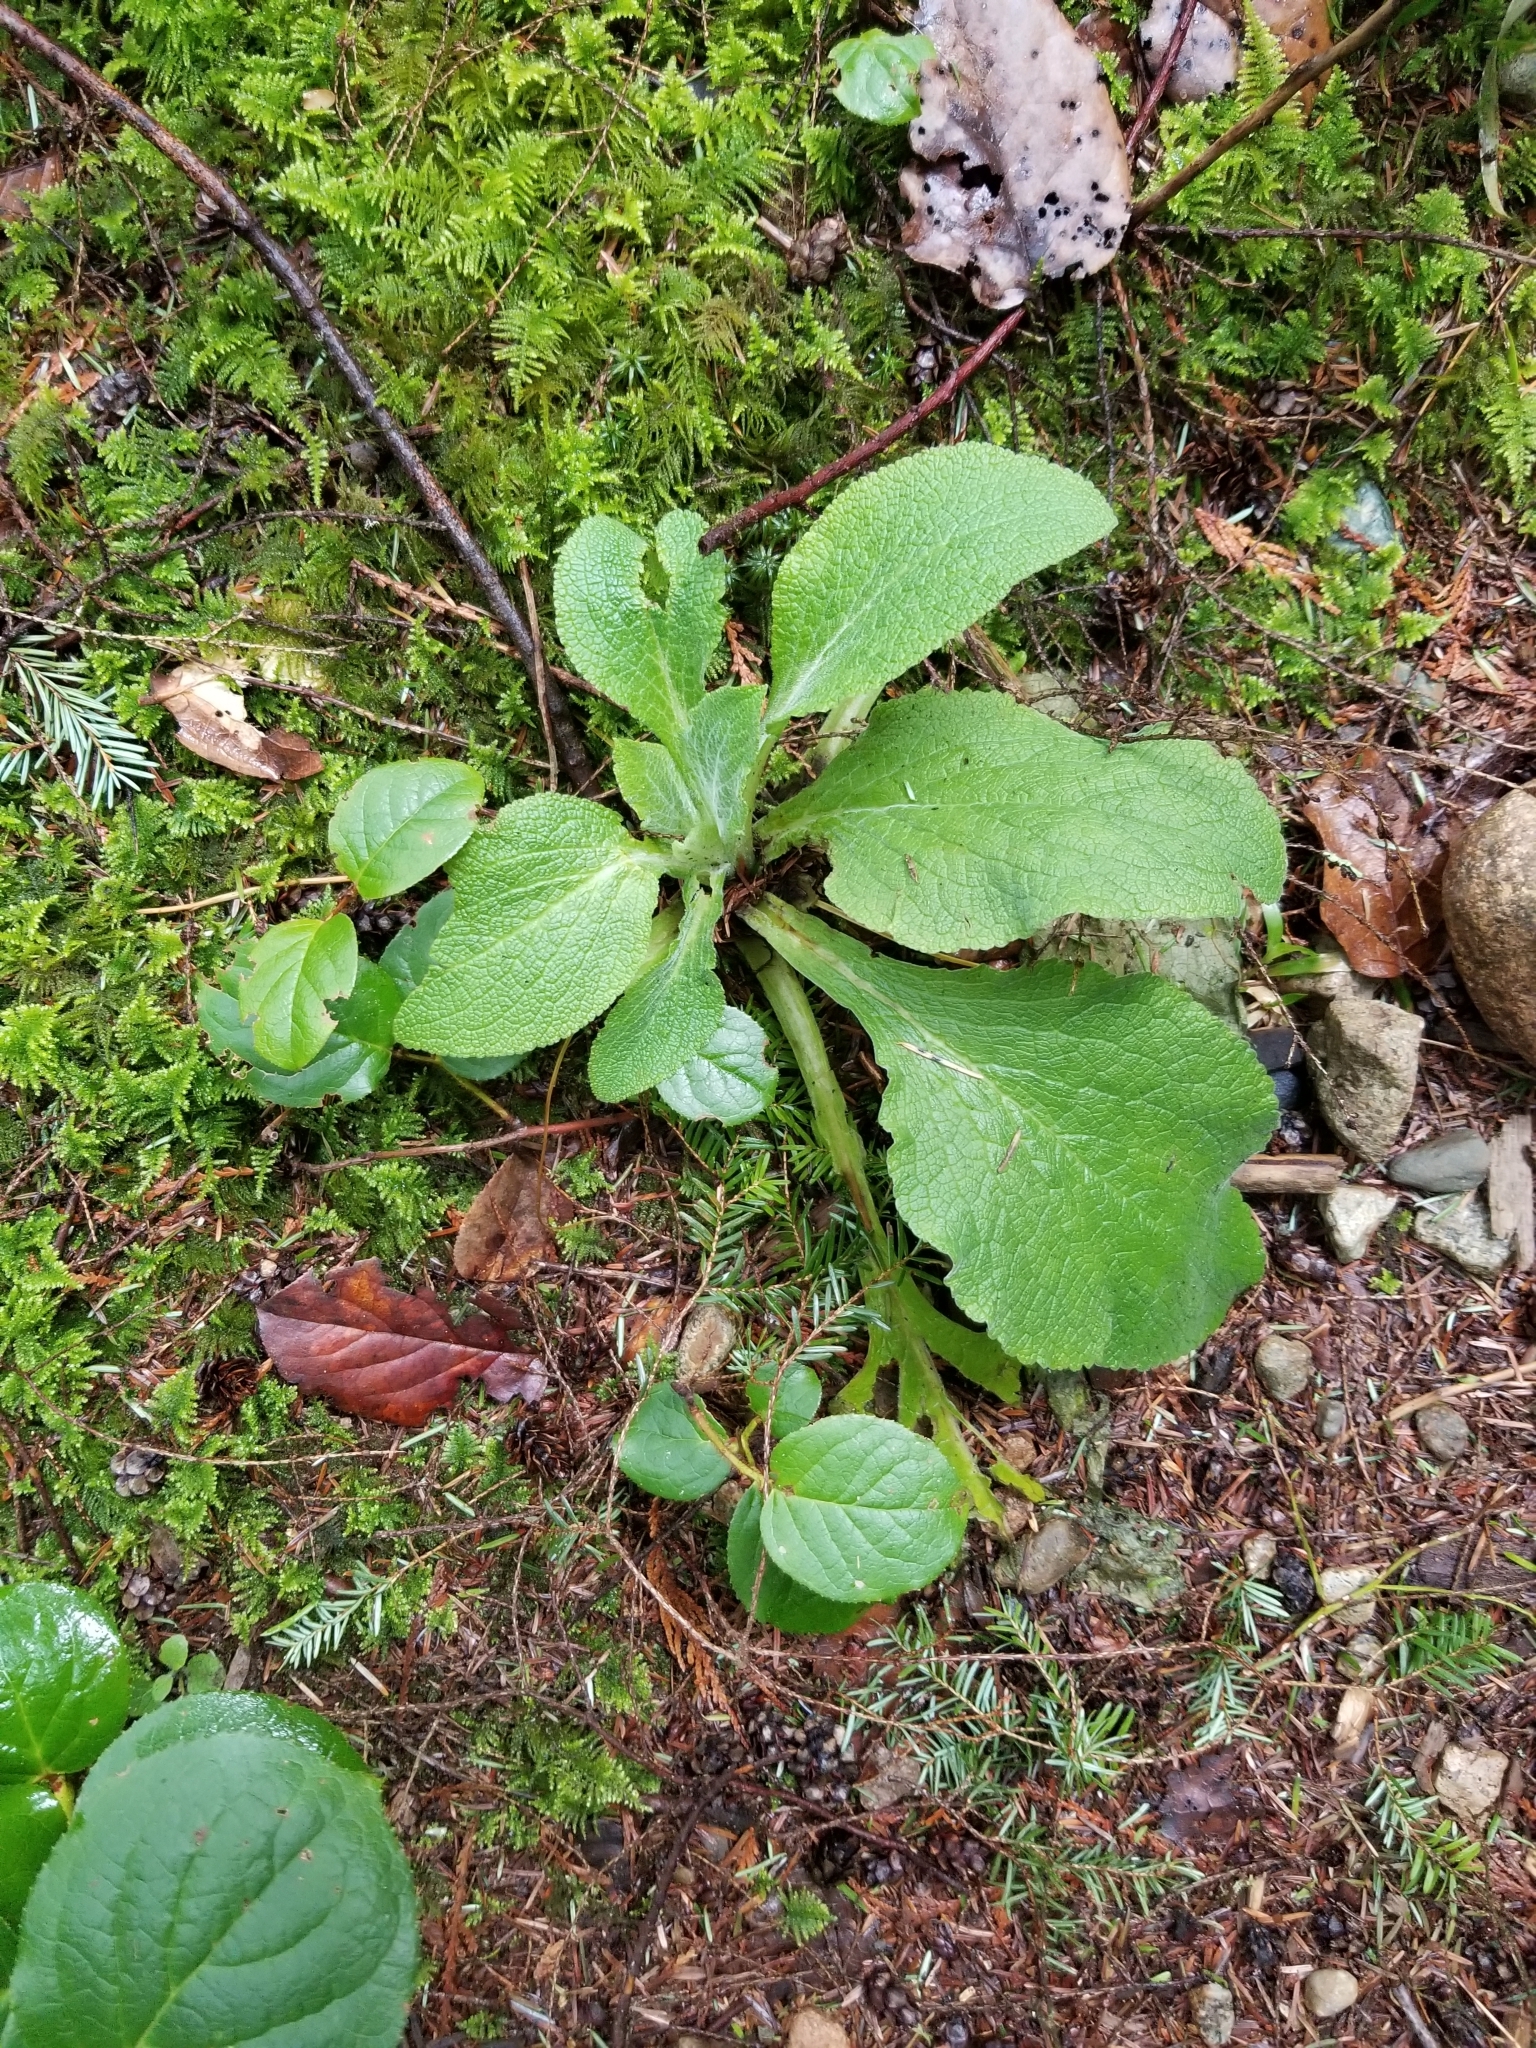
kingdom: Plantae
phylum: Tracheophyta
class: Magnoliopsida
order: Lamiales
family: Plantaginaceae
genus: Digitalis
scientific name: Digitalis purpurea
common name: Foxglove
